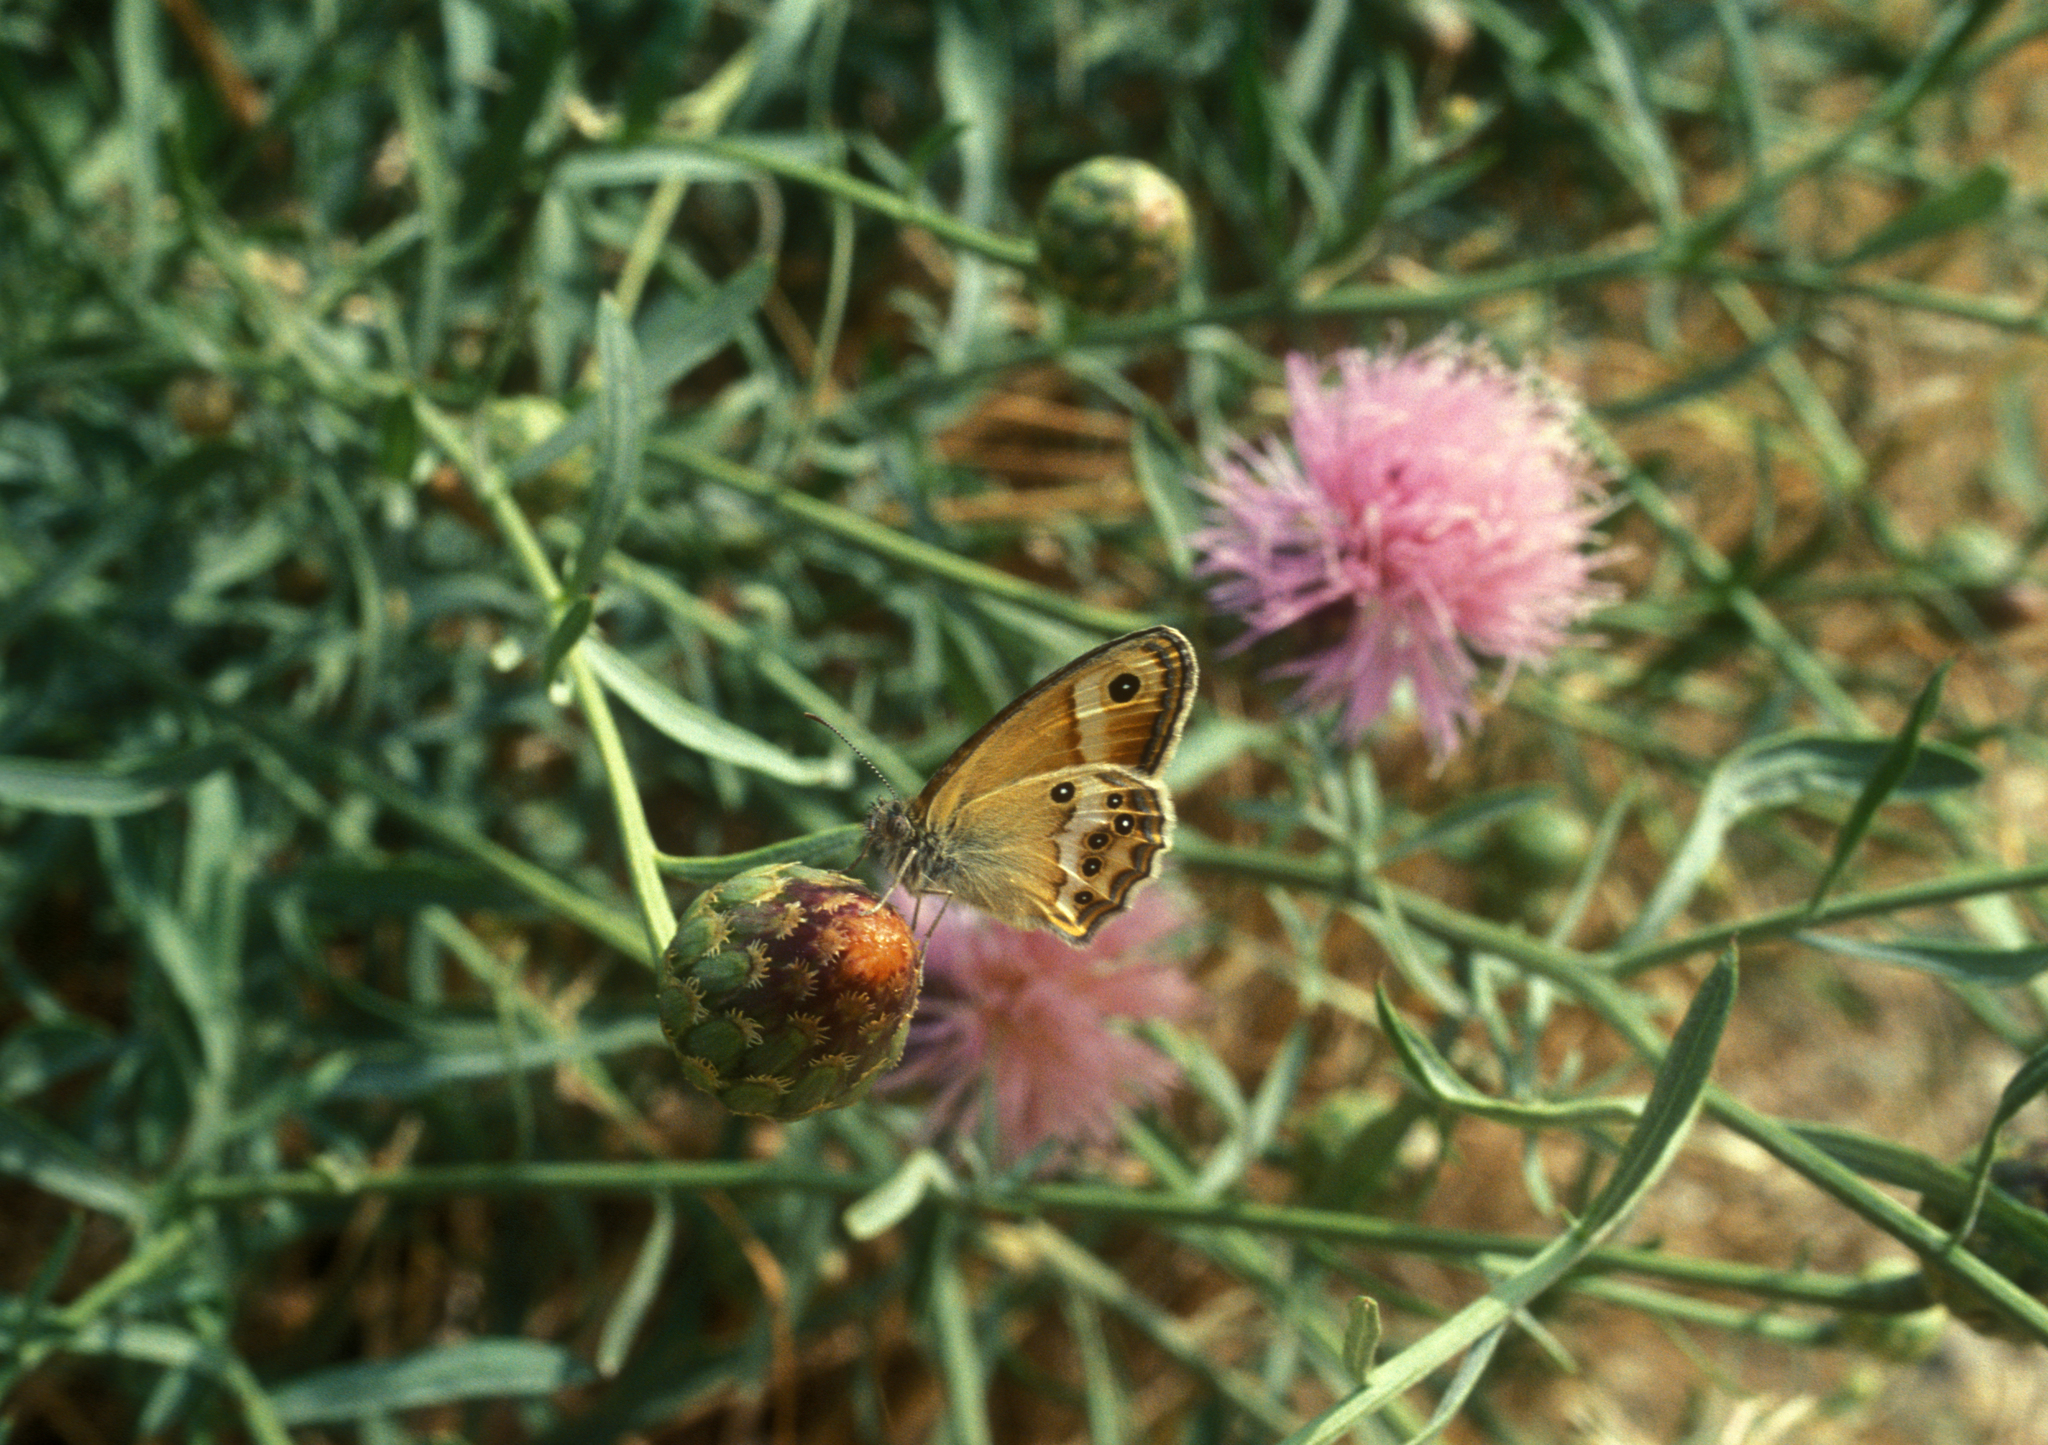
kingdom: Animalia
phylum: Arthropoda
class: Insecta
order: Lepidoptera
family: Nymphalidae
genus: Coenonympha
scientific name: Coenonympha dorus
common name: Dusky heath
